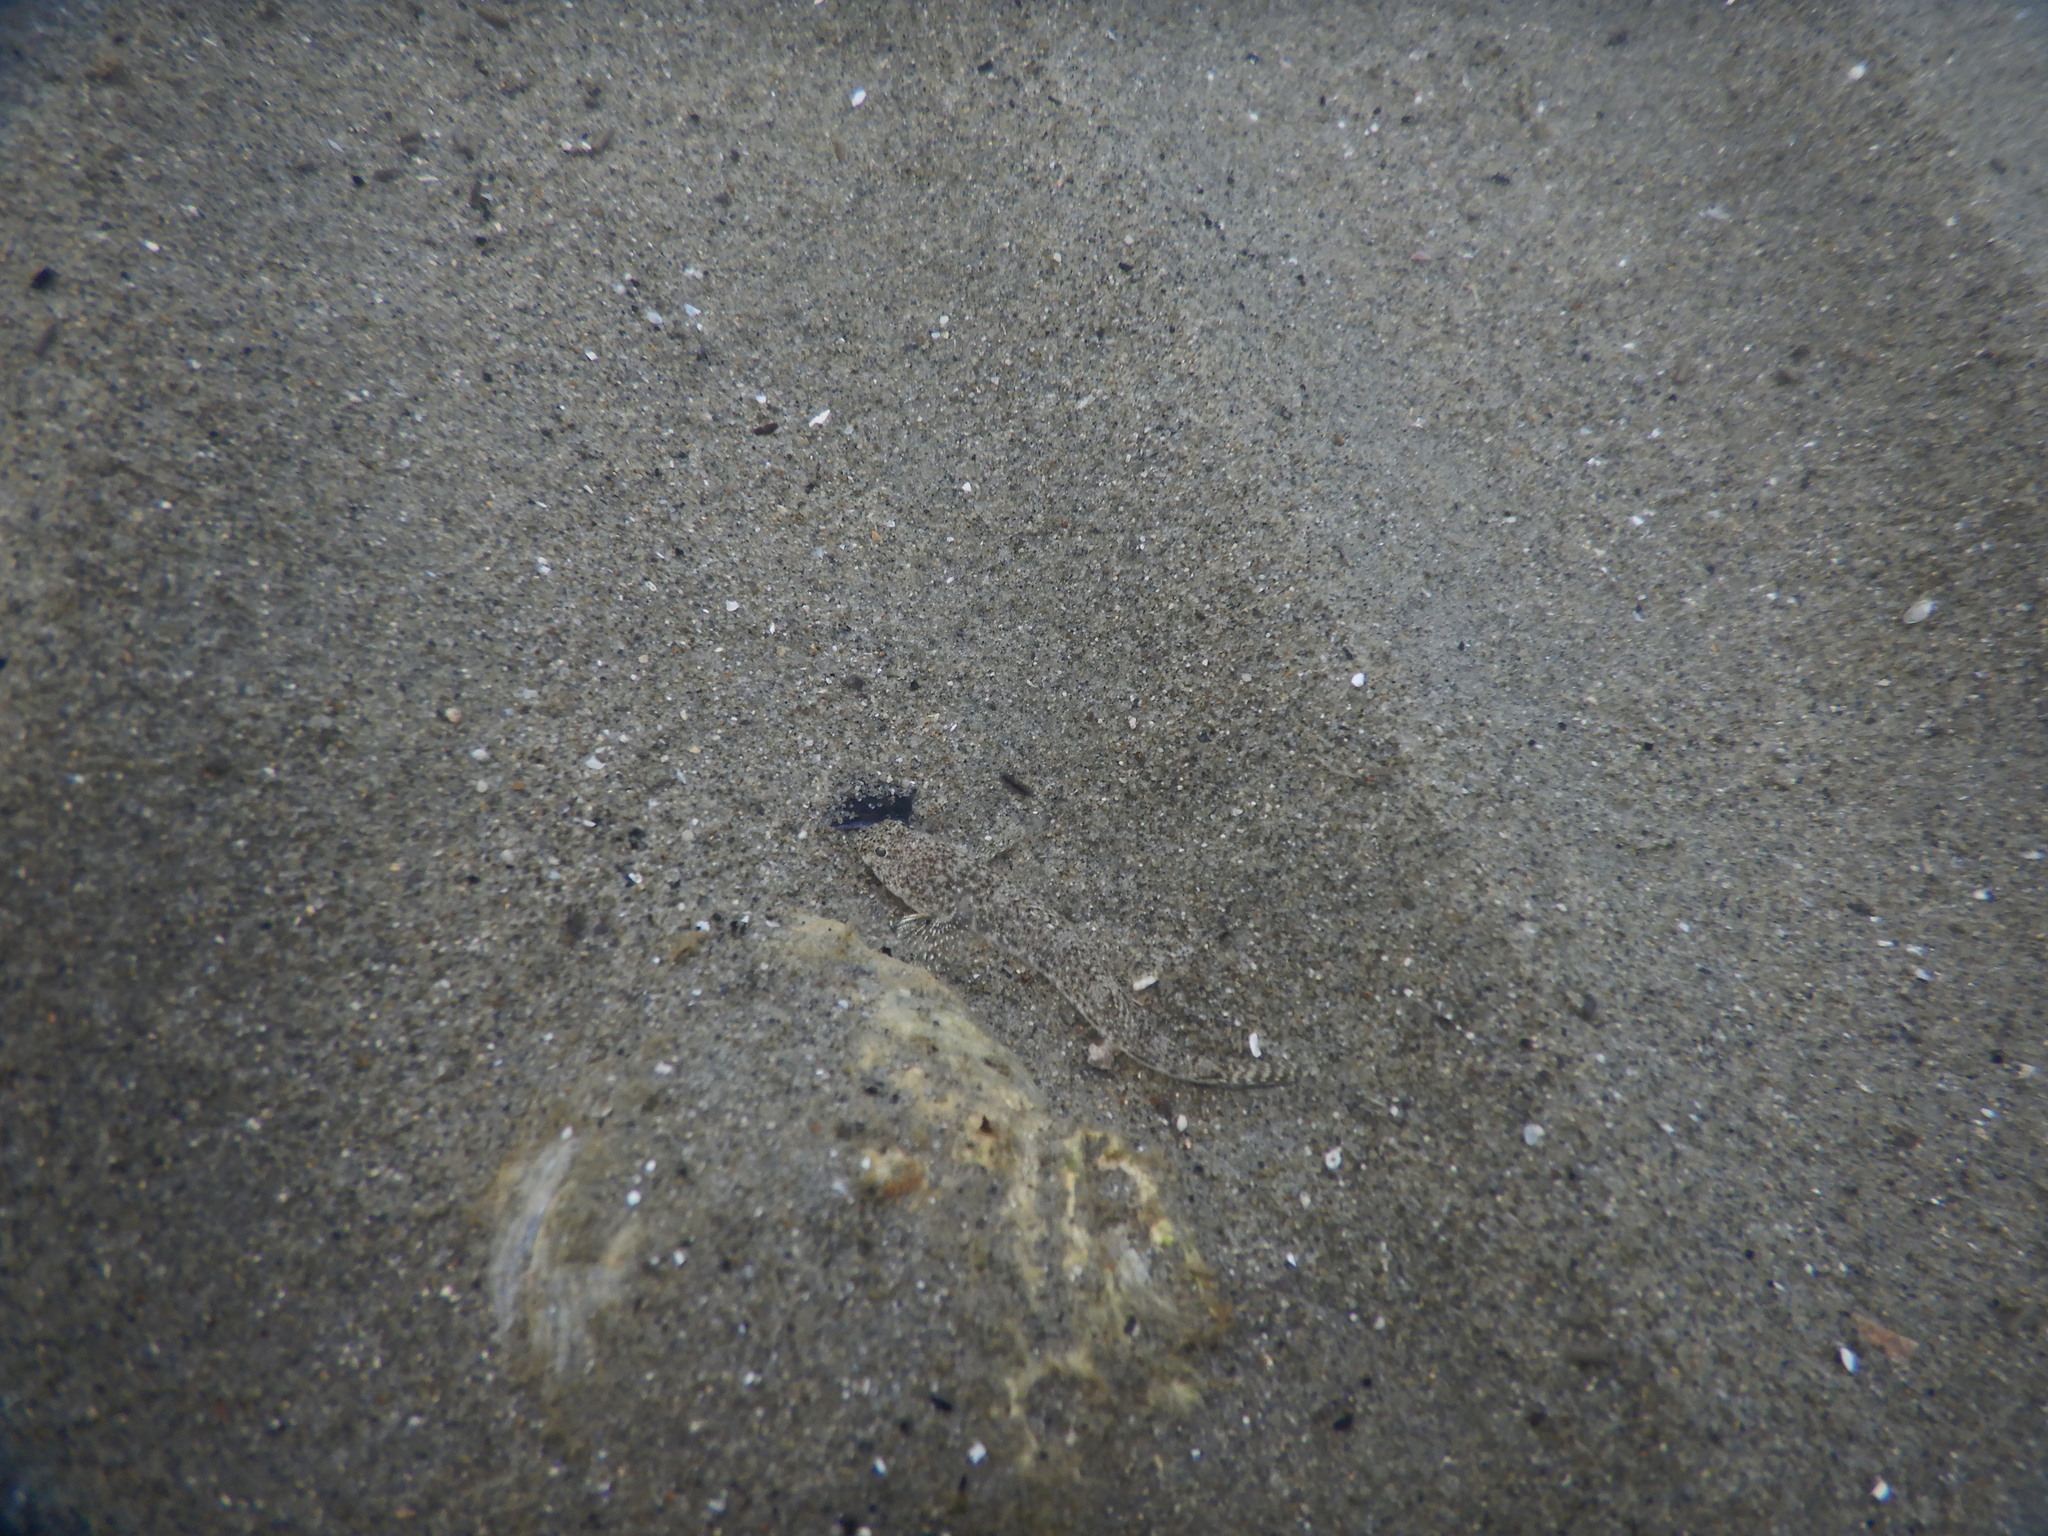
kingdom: Animalia
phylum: Chordata
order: Perciformes
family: Gobiidae
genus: Pomatoschistus
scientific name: Pomatoschistus marmoratus
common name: Marbled goby
